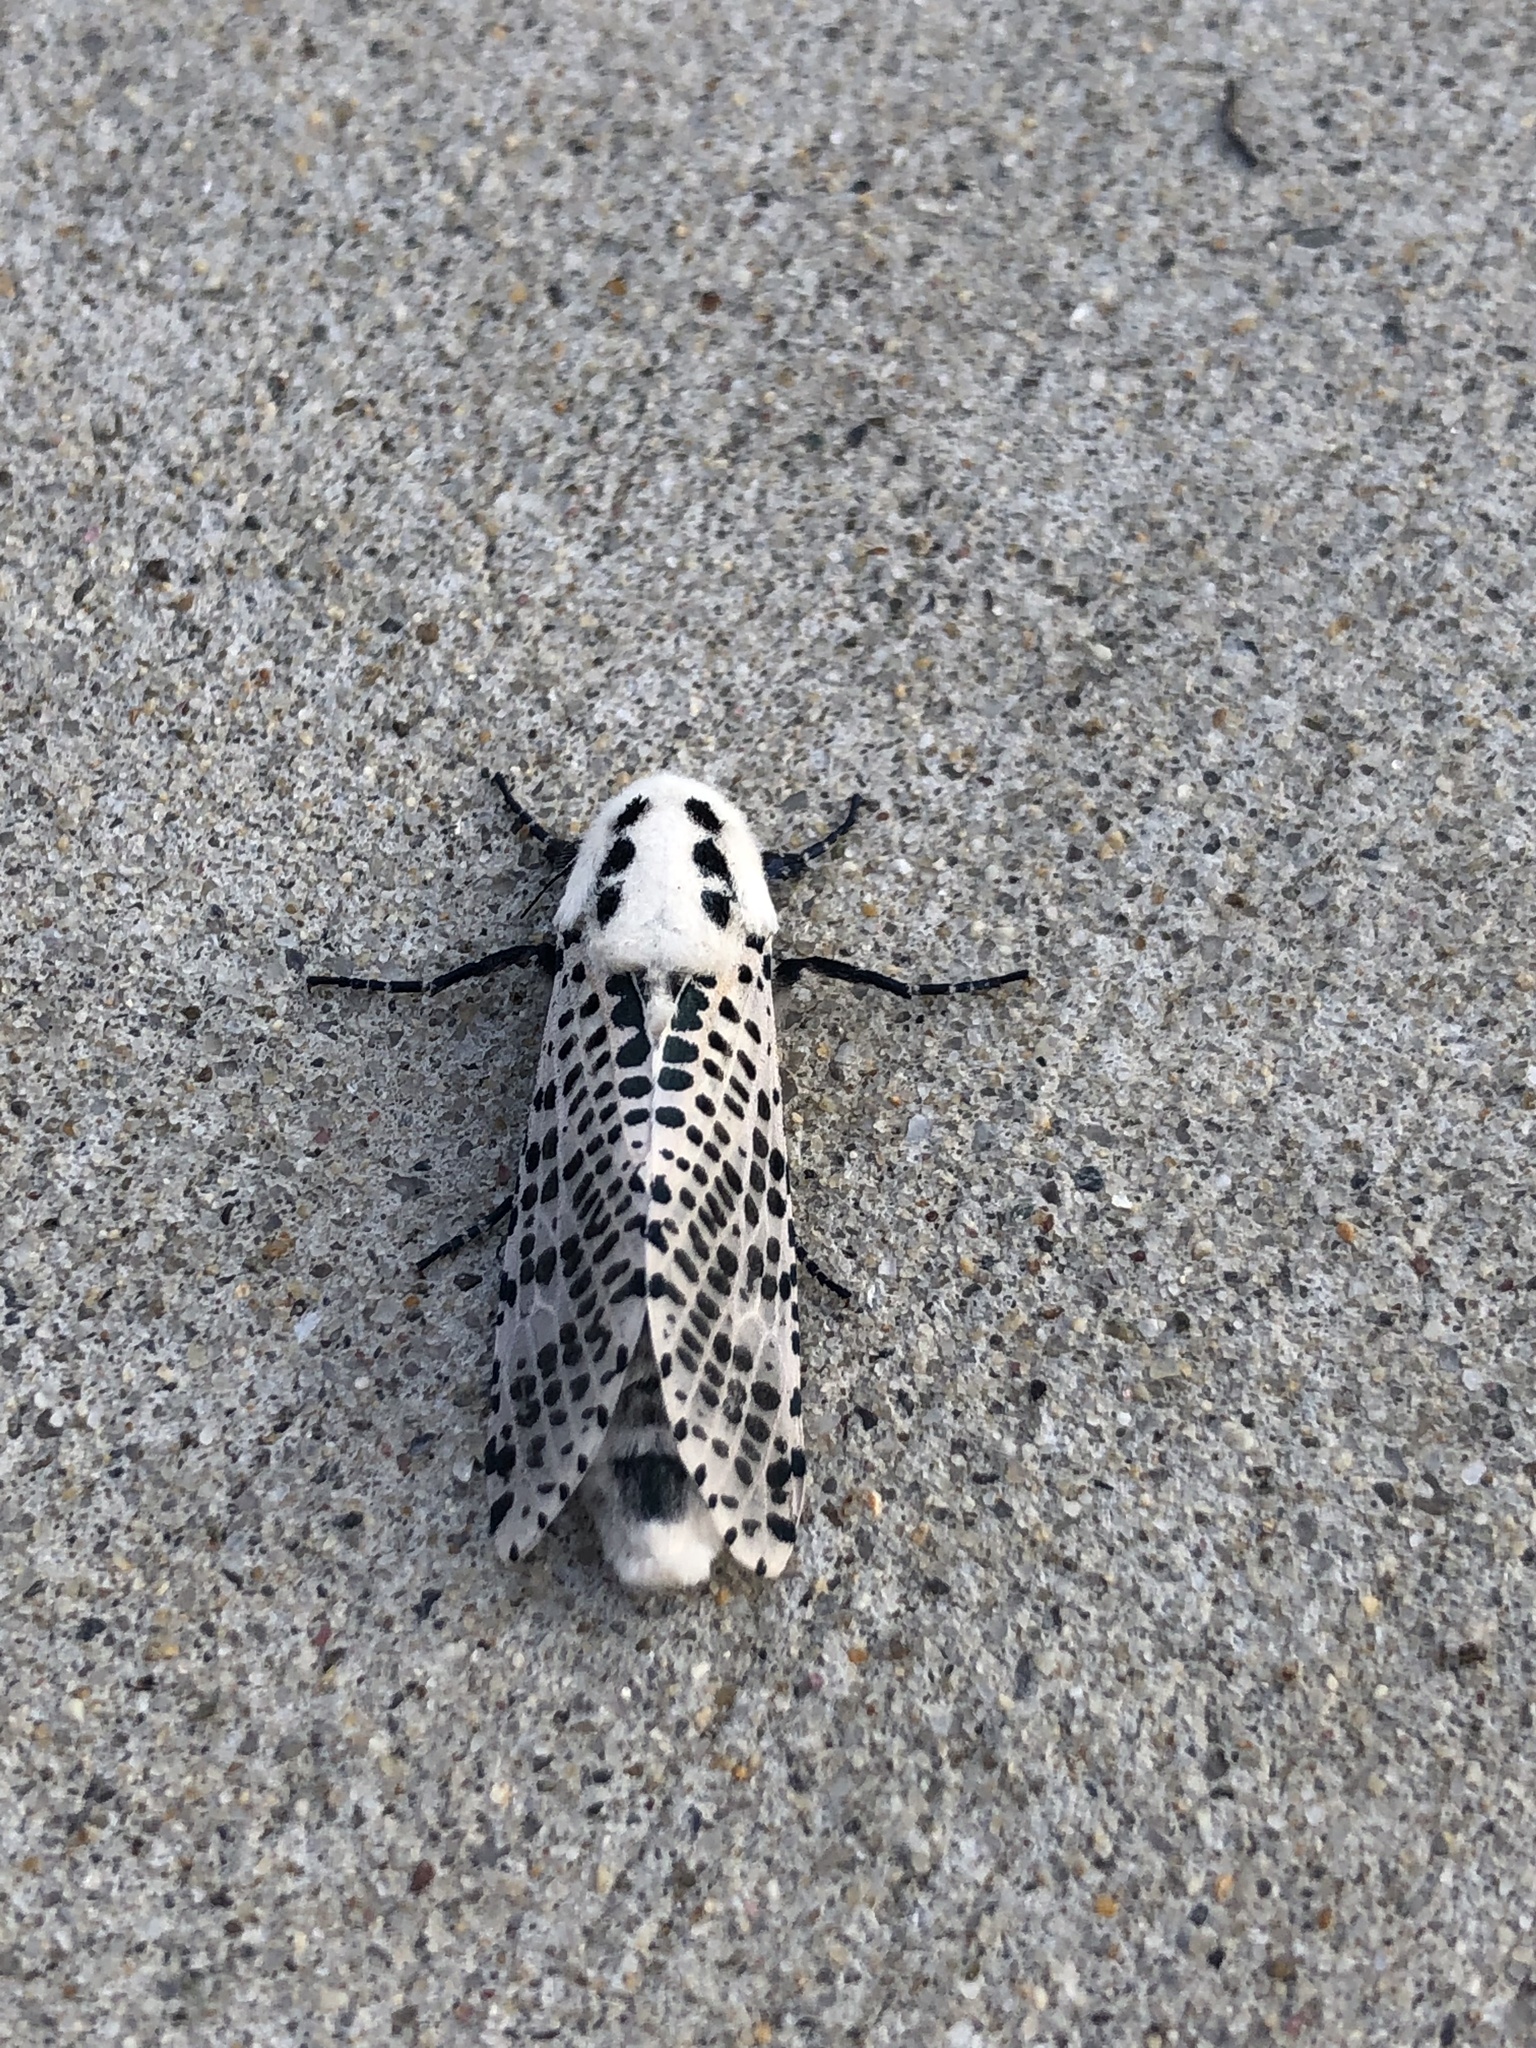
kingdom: Animalia
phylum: Arthropoda
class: Insecta
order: Lepidoptera
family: Cossidae
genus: Zeuzera
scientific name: Zeuzera pyrina
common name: Leopard moth
